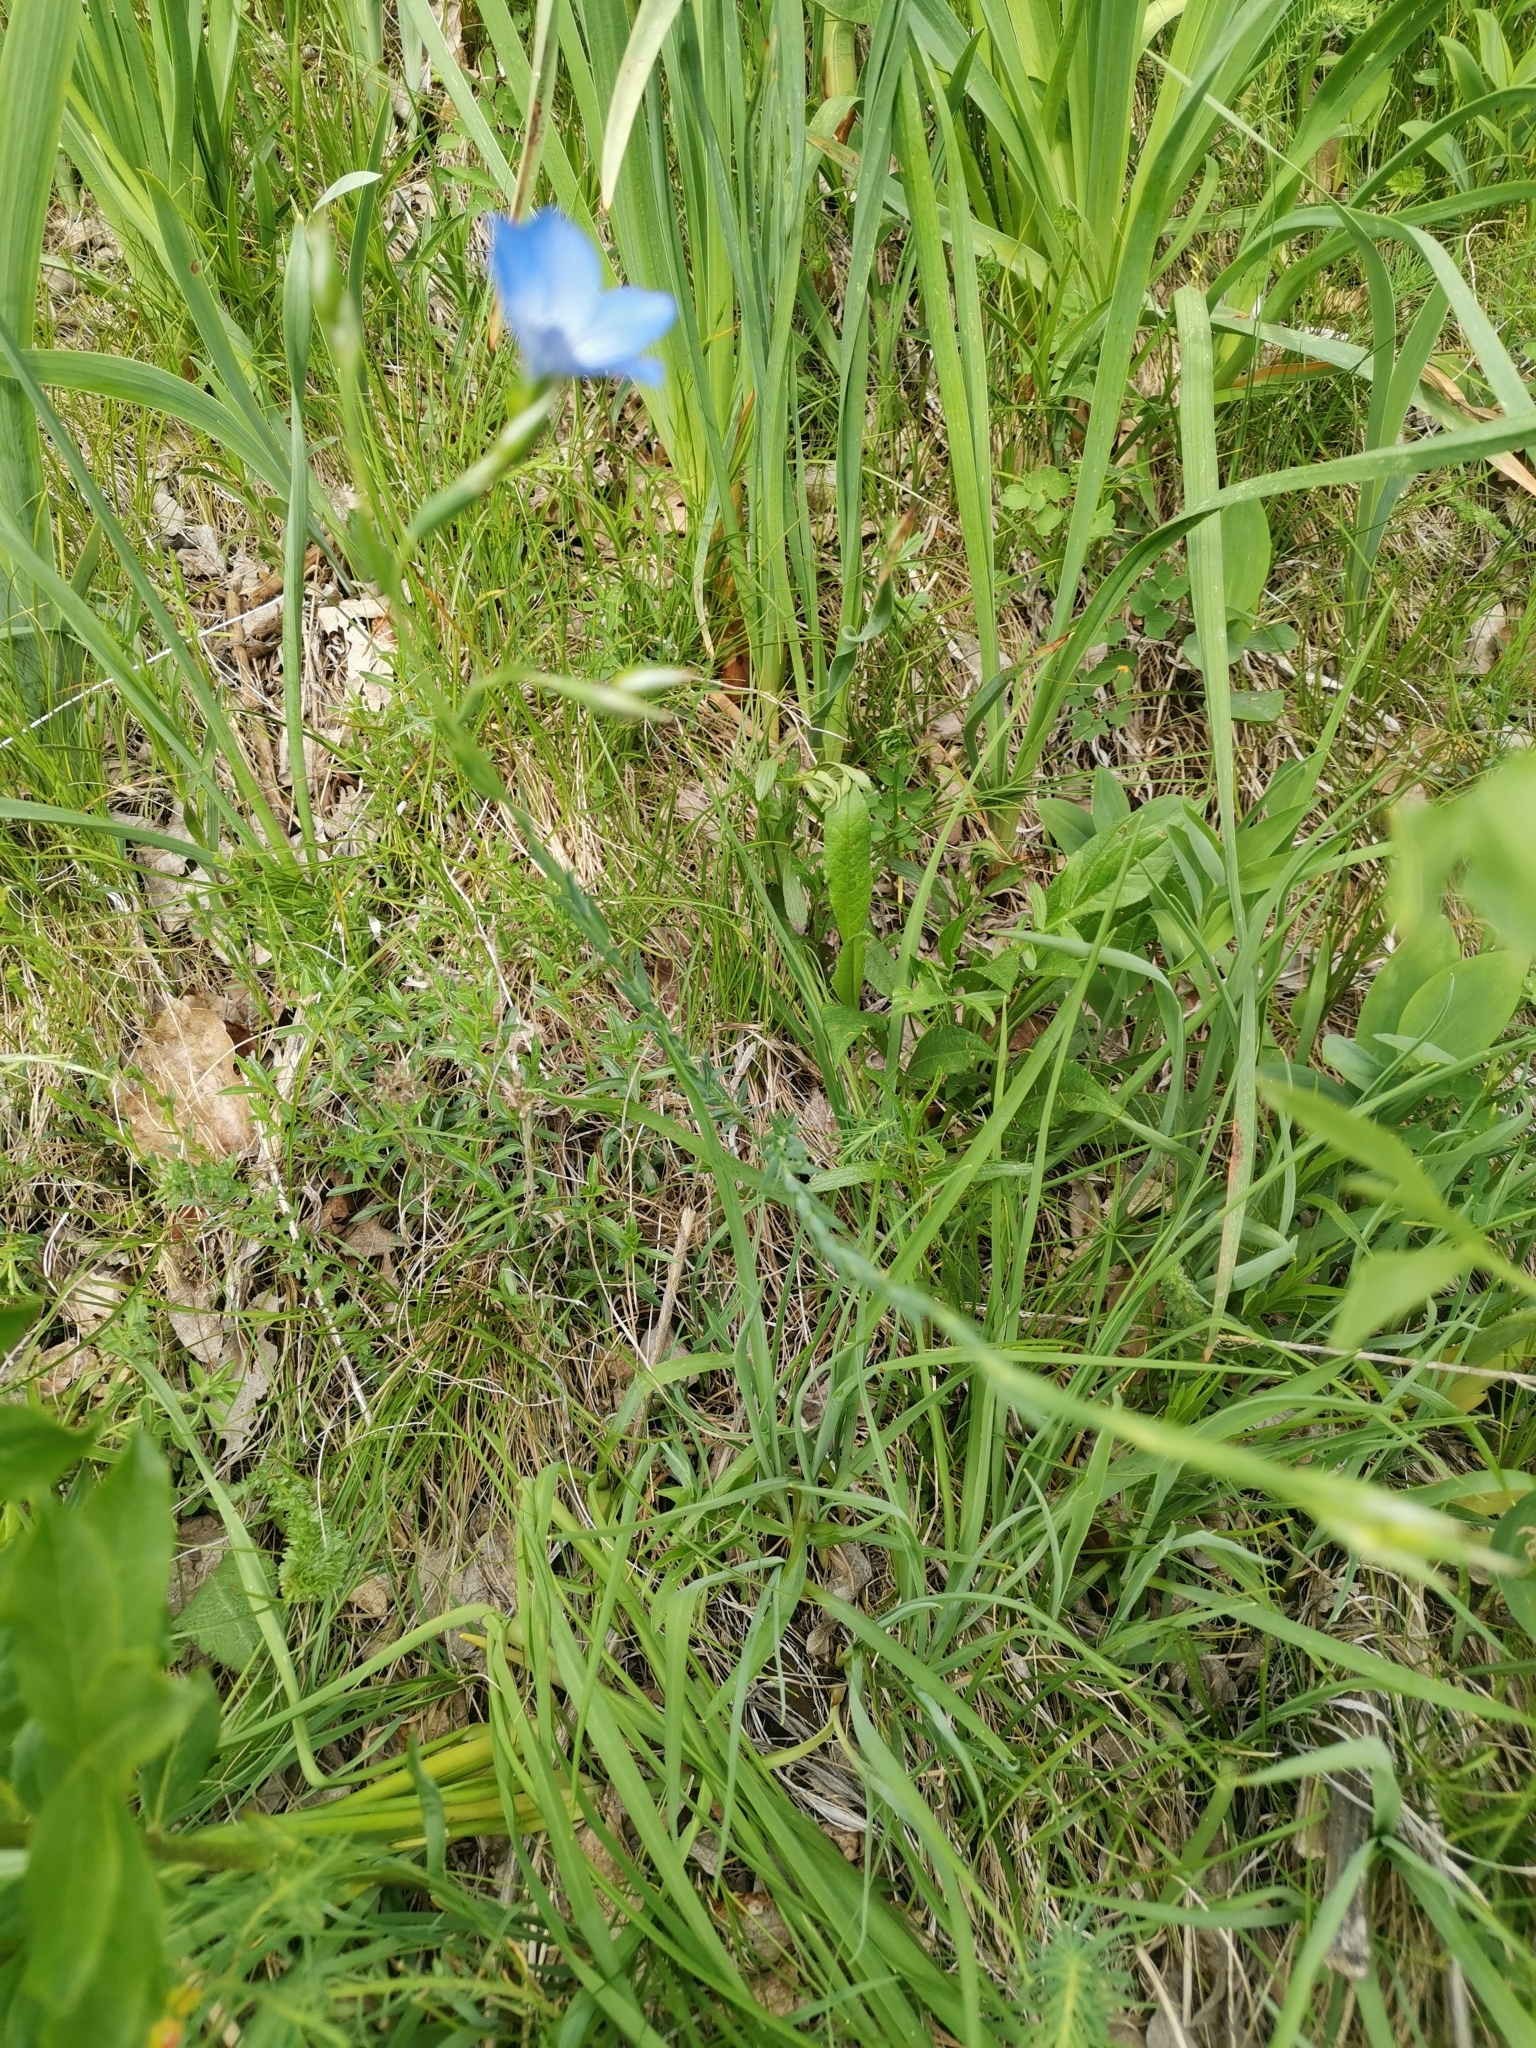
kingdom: Plantae
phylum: Tracheophyta
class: Magnoliopsida
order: Malpighiales
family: Linaceae
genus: Linum
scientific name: Linum narbonense
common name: Flax
